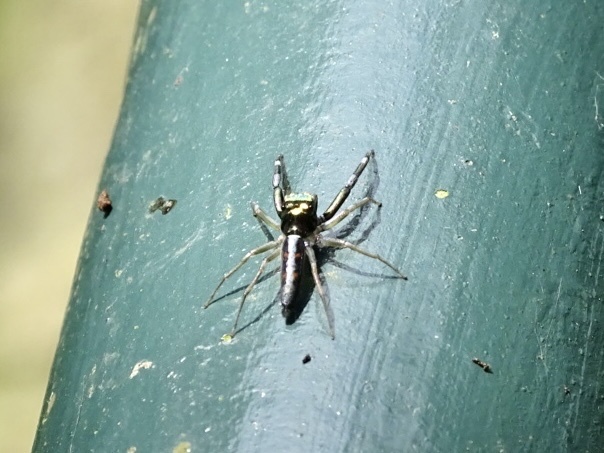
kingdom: Animalia
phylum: Arthropoda
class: Arachnida
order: Araneae
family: Salticidae
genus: Chrysilla
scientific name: Chrysilla acerosa
